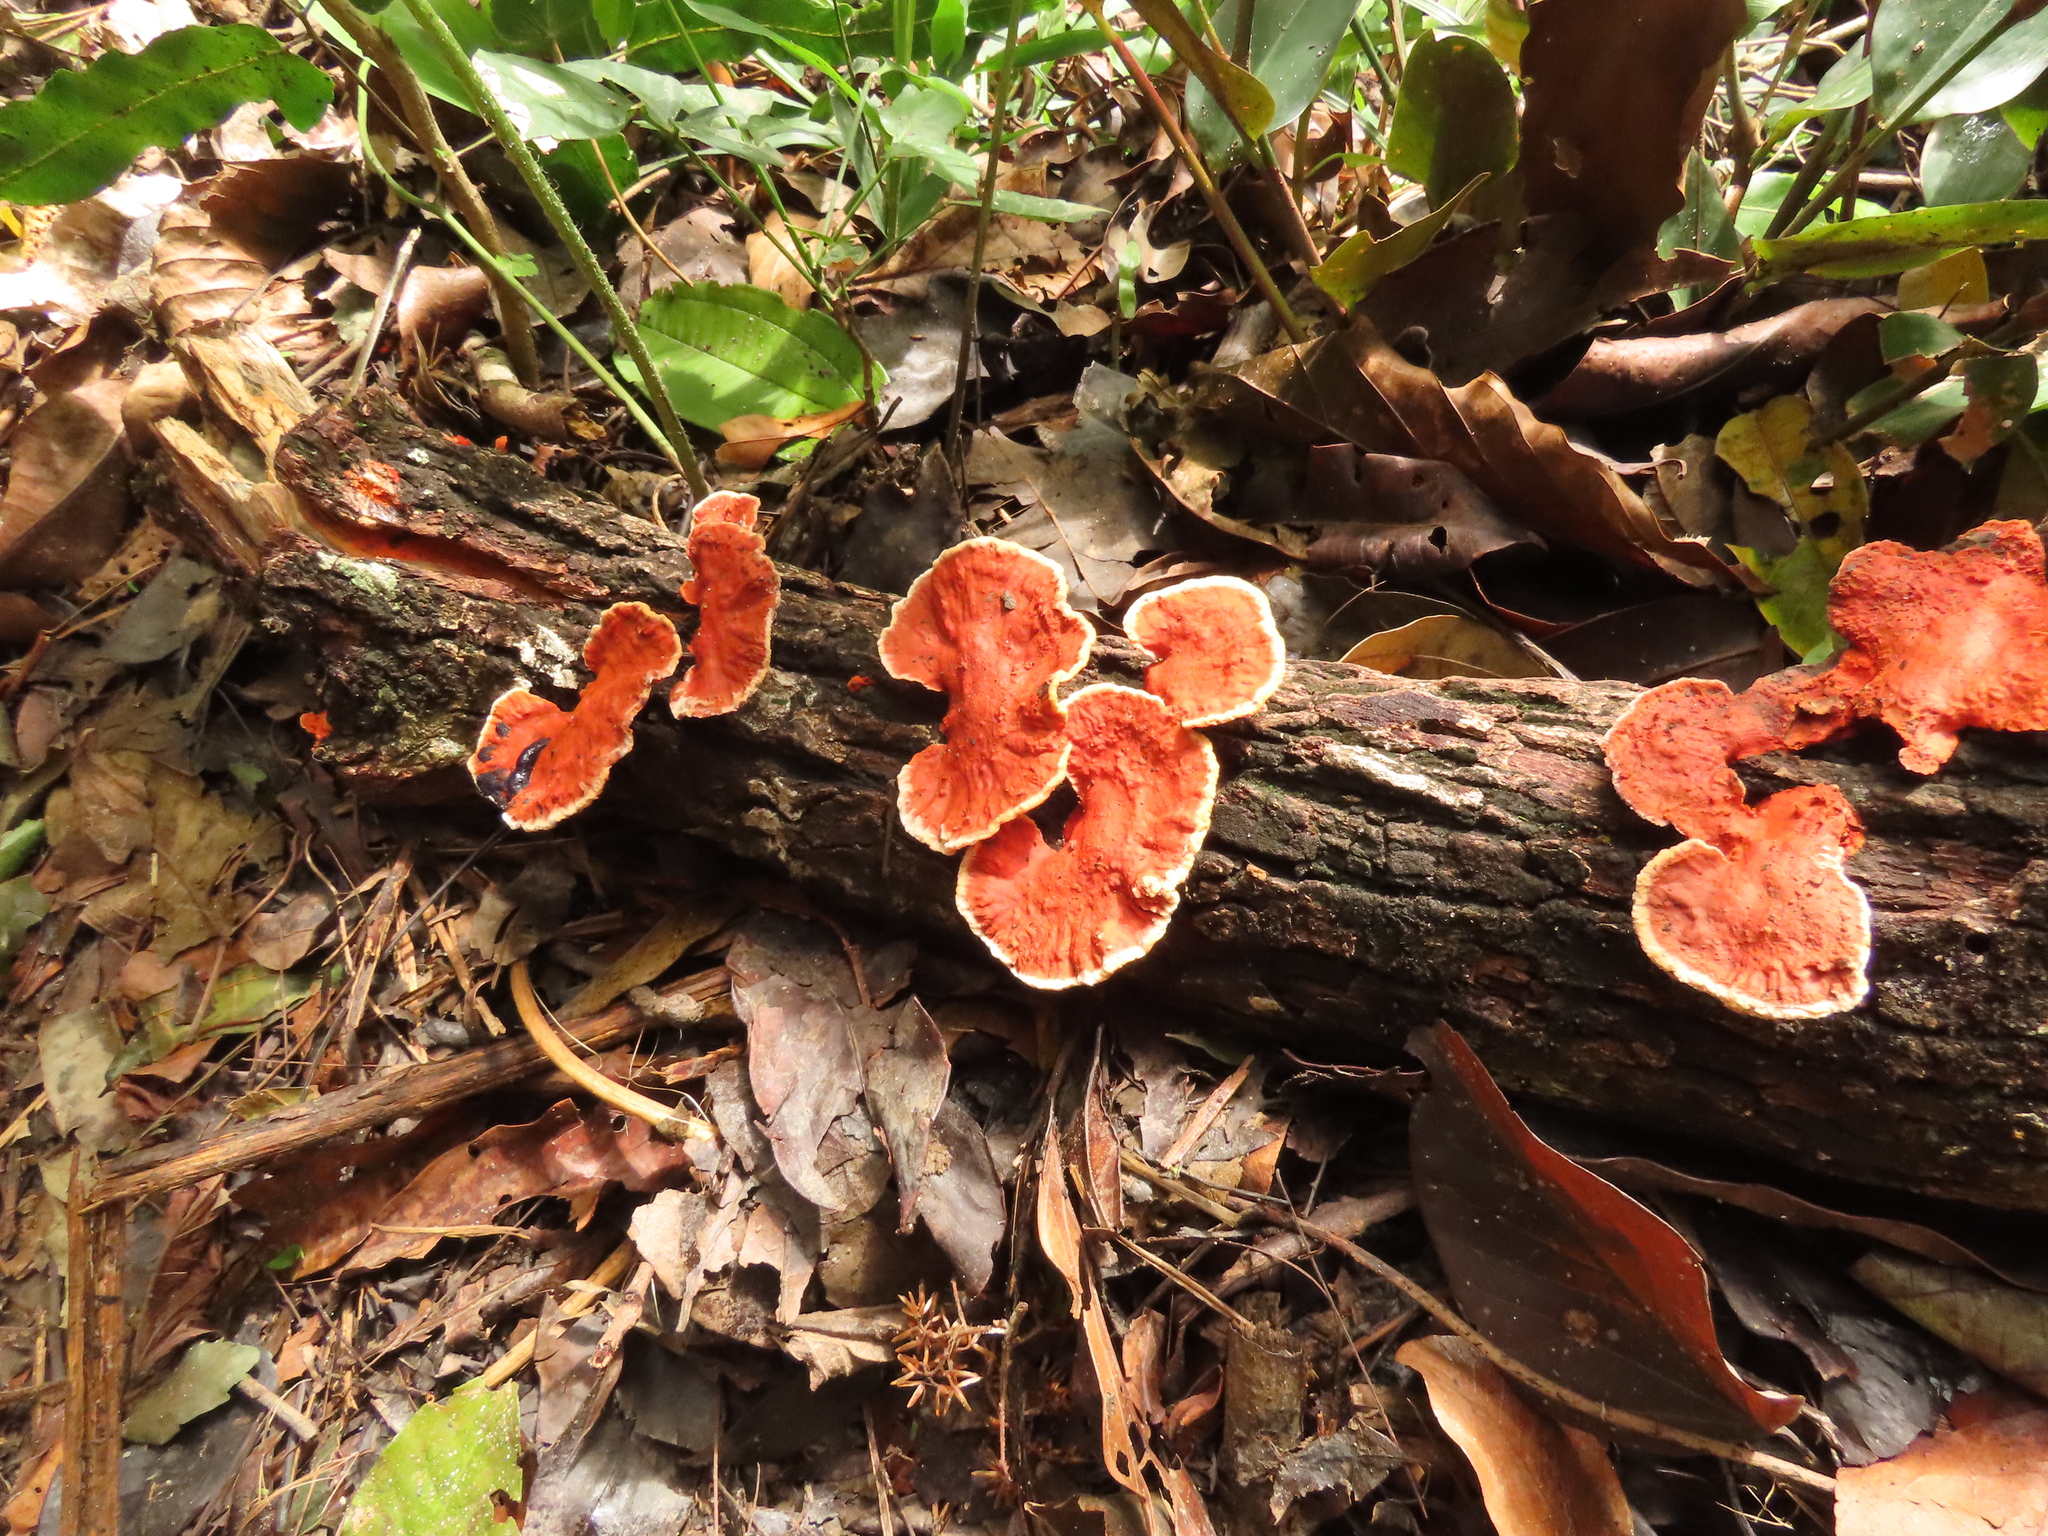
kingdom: Fungi
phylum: Basidiomycota
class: Agaricomycetes
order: Polyporales
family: Polyporaceae
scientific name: Polyporaceae
